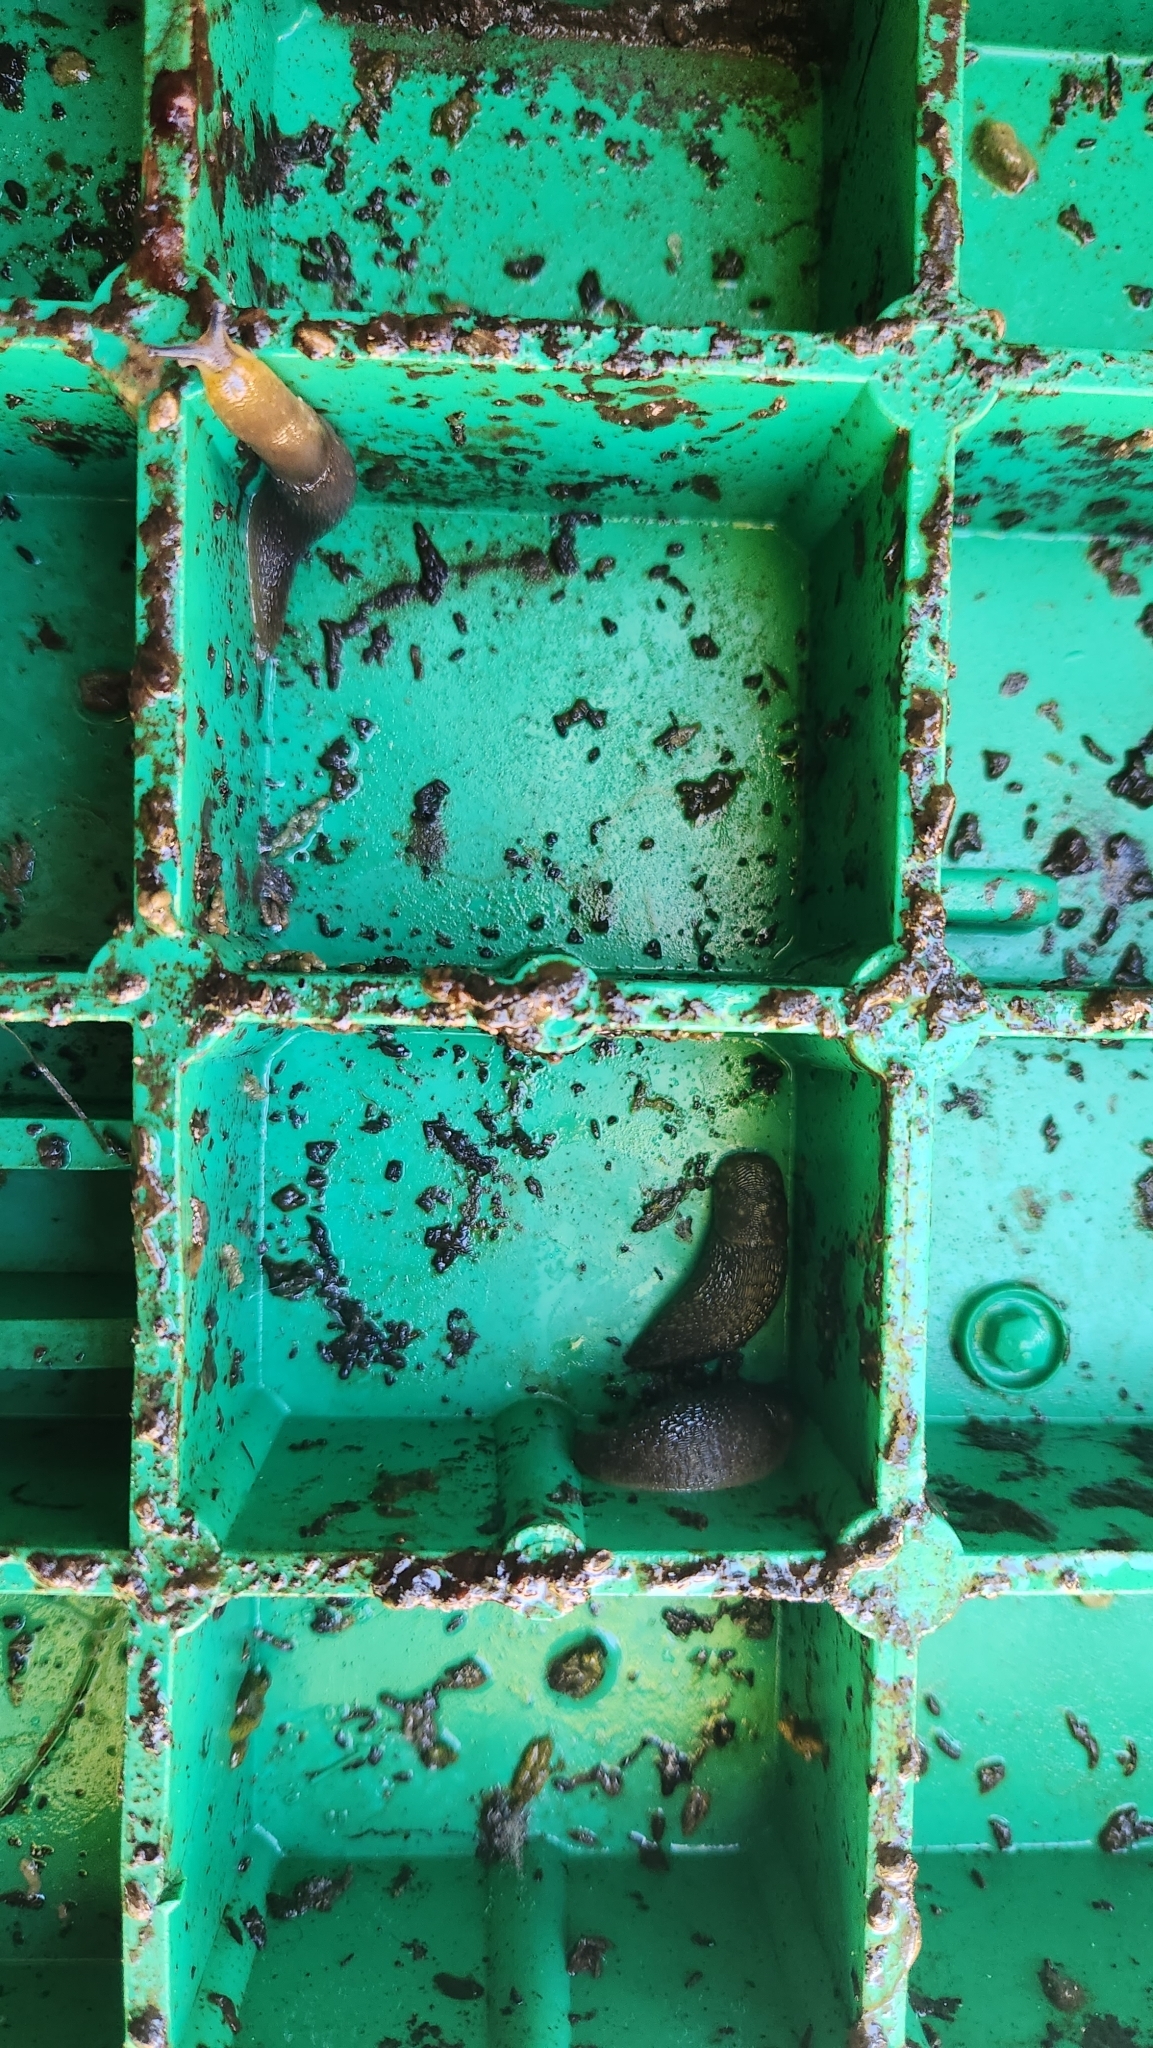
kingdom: Animalia
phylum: Mollusca
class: Gastropoda
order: Stylommatophora
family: Limacidae
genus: Limacus
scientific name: Limacus flavus
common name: Yellow gardenslug
